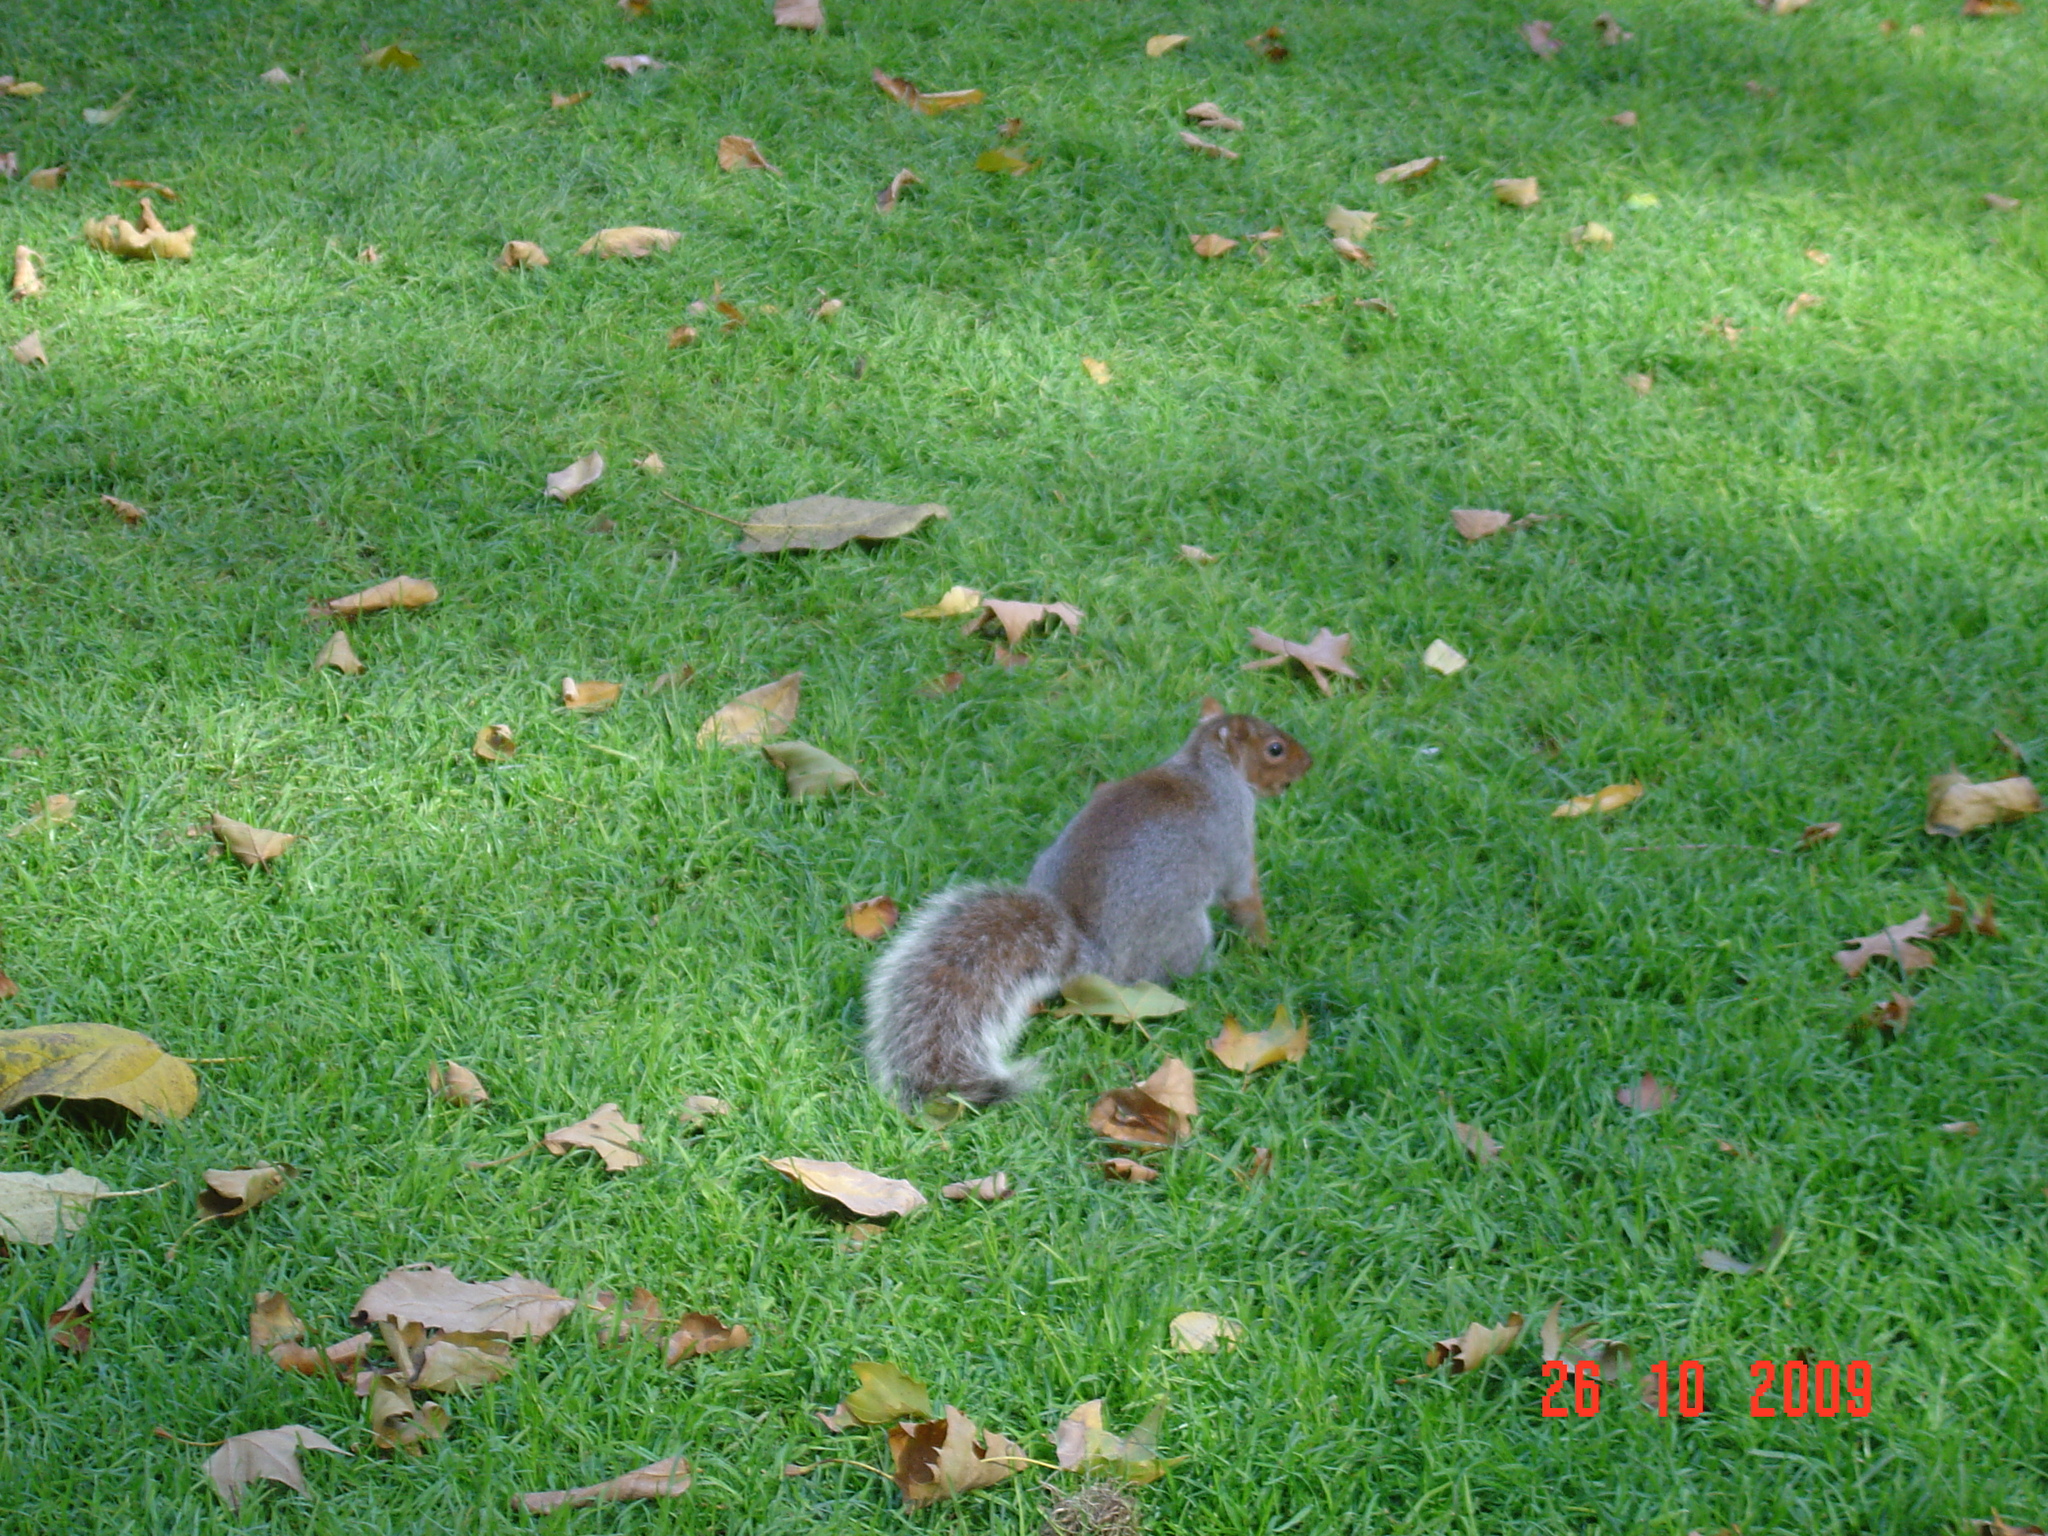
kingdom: Animalia
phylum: Chordata
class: Mammalia
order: Rodentia
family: Sciuridae
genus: Sciurus
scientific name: Sciurus carolinensis
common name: Eastern gray squirrel
